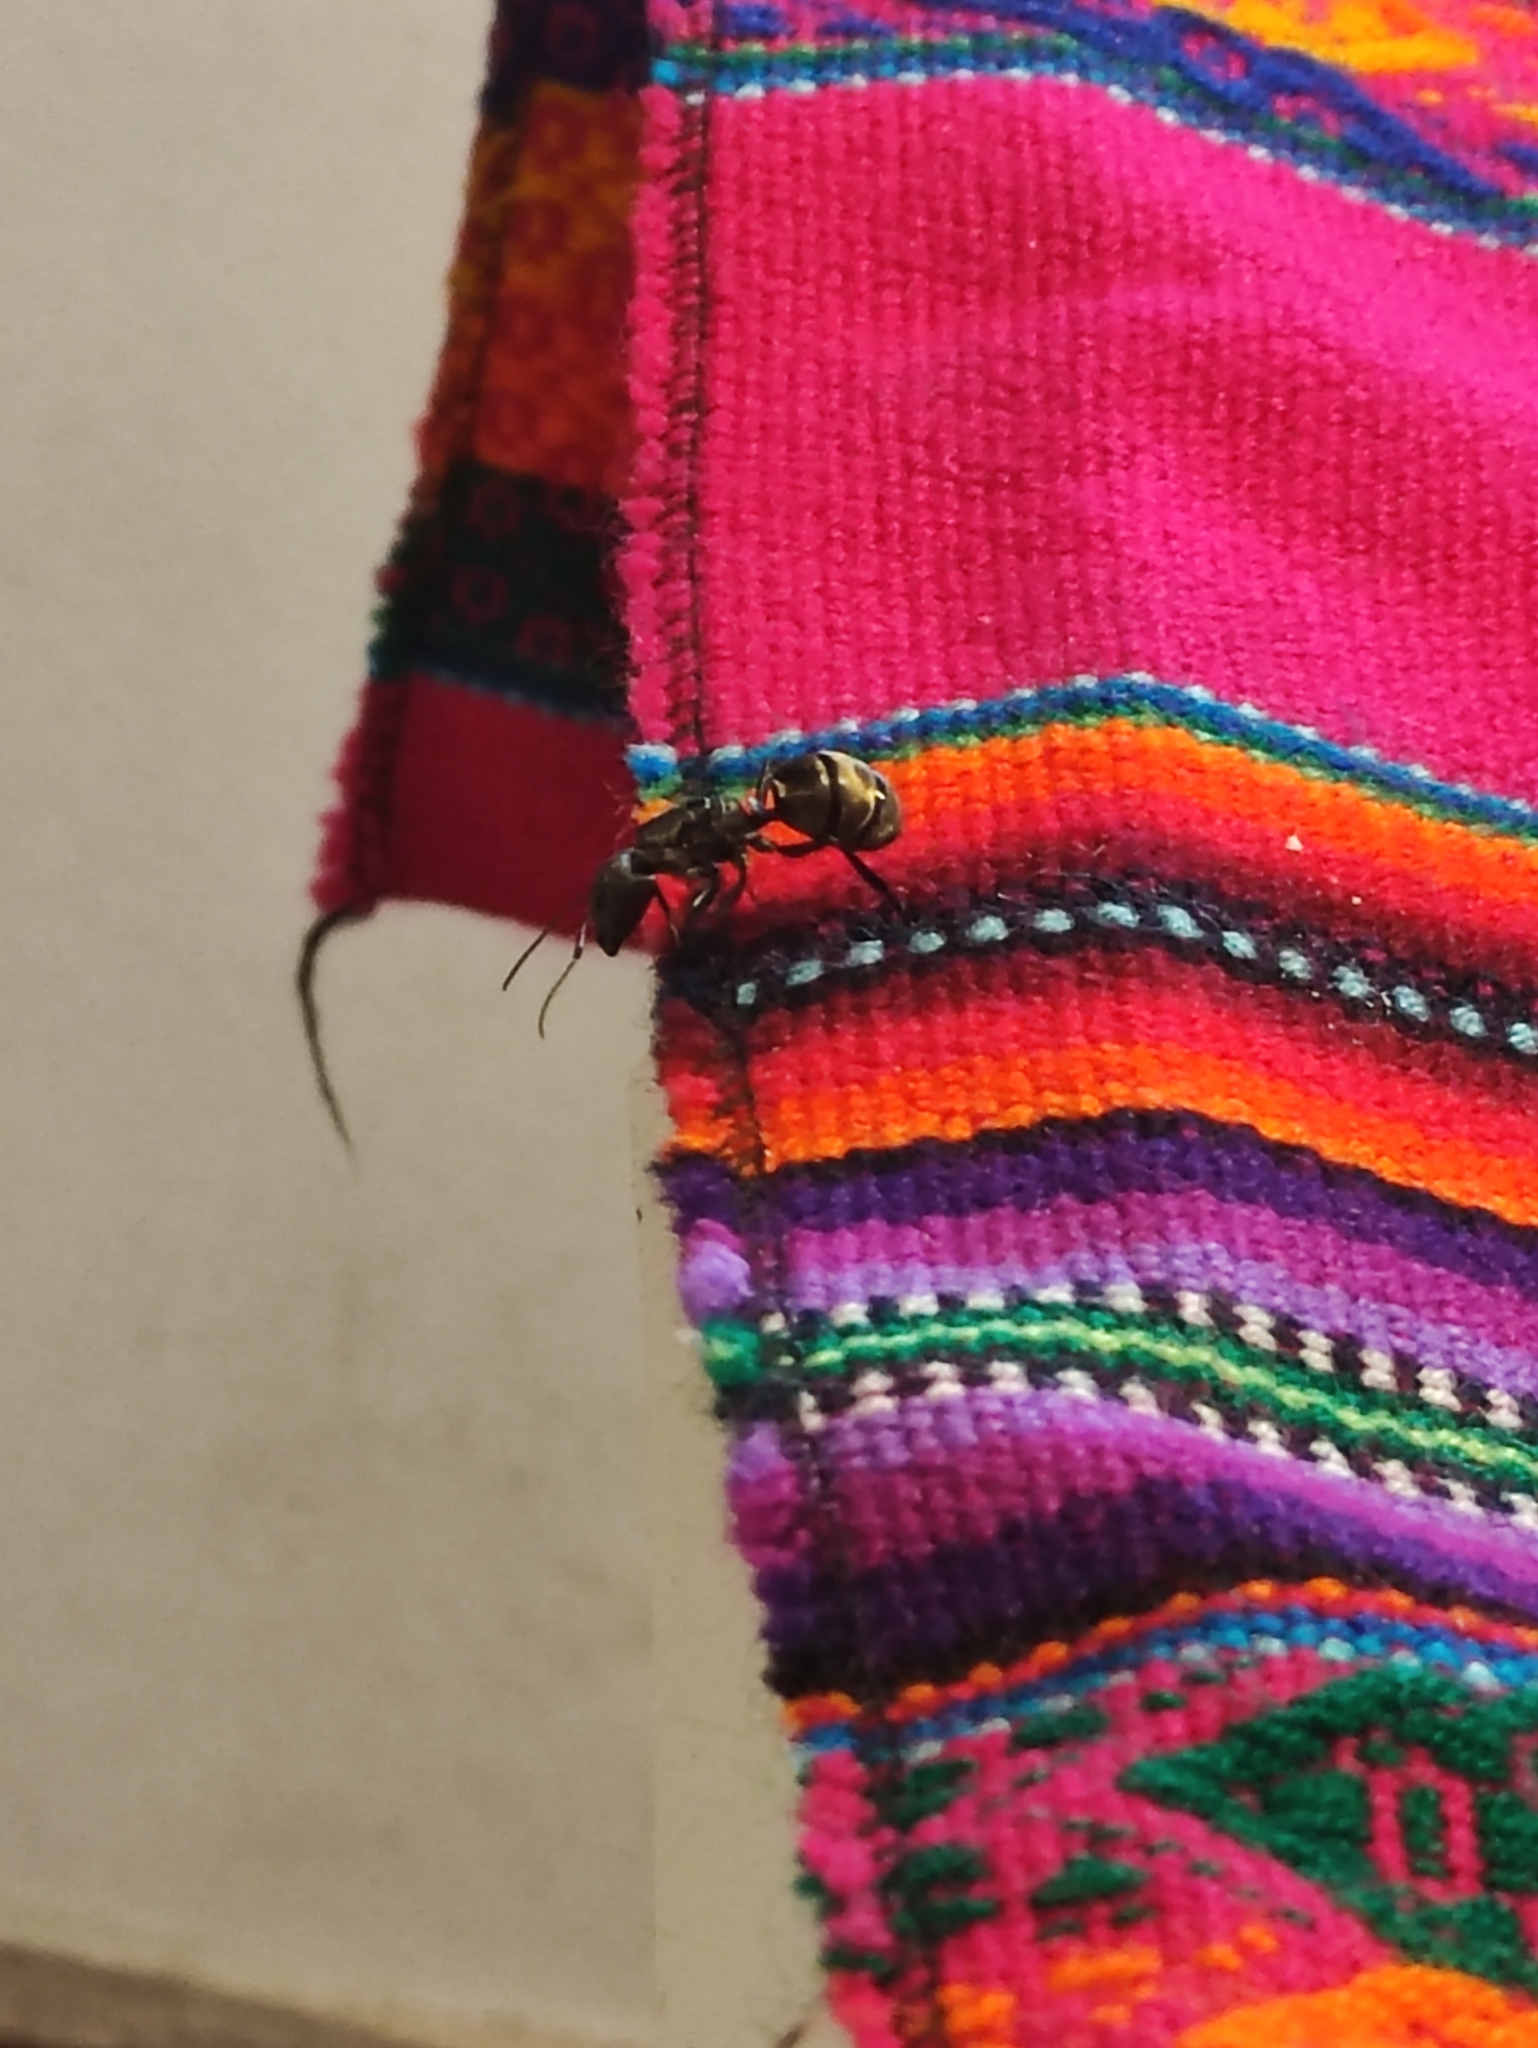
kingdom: Animalia
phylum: Arthropoda
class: Insecta
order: Hymenoptera
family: Formicidae
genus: Camponotus
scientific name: Camponotus sericeiventris
